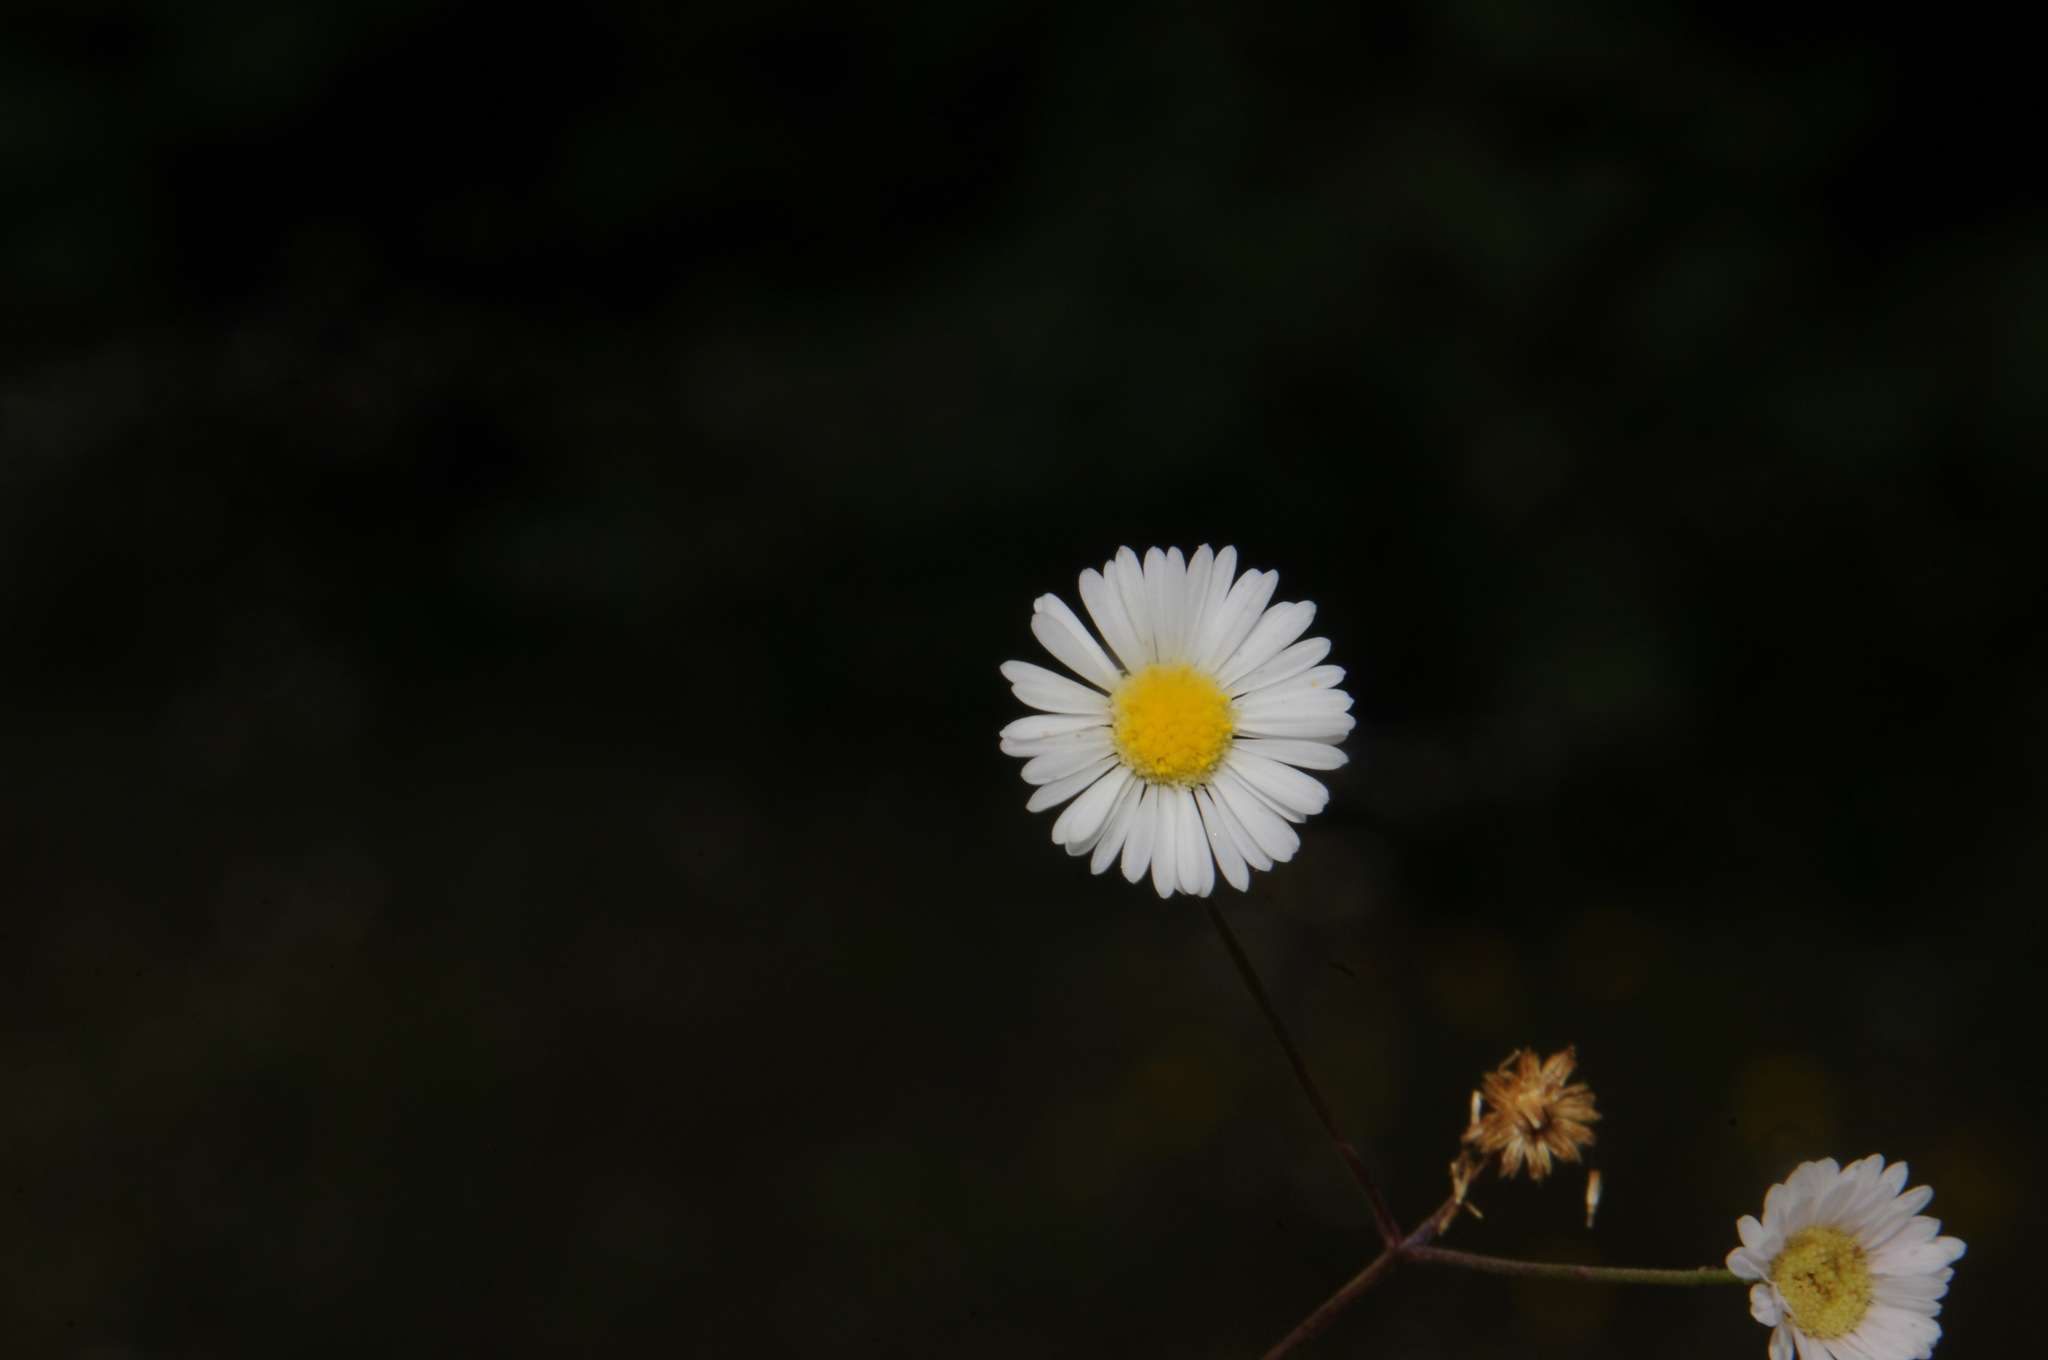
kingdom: Plantae
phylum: Tracheophyta
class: Magnoliopsida
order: Asterales
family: Asteraceae
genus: Erigeron
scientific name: Erigeron dolomiticola
